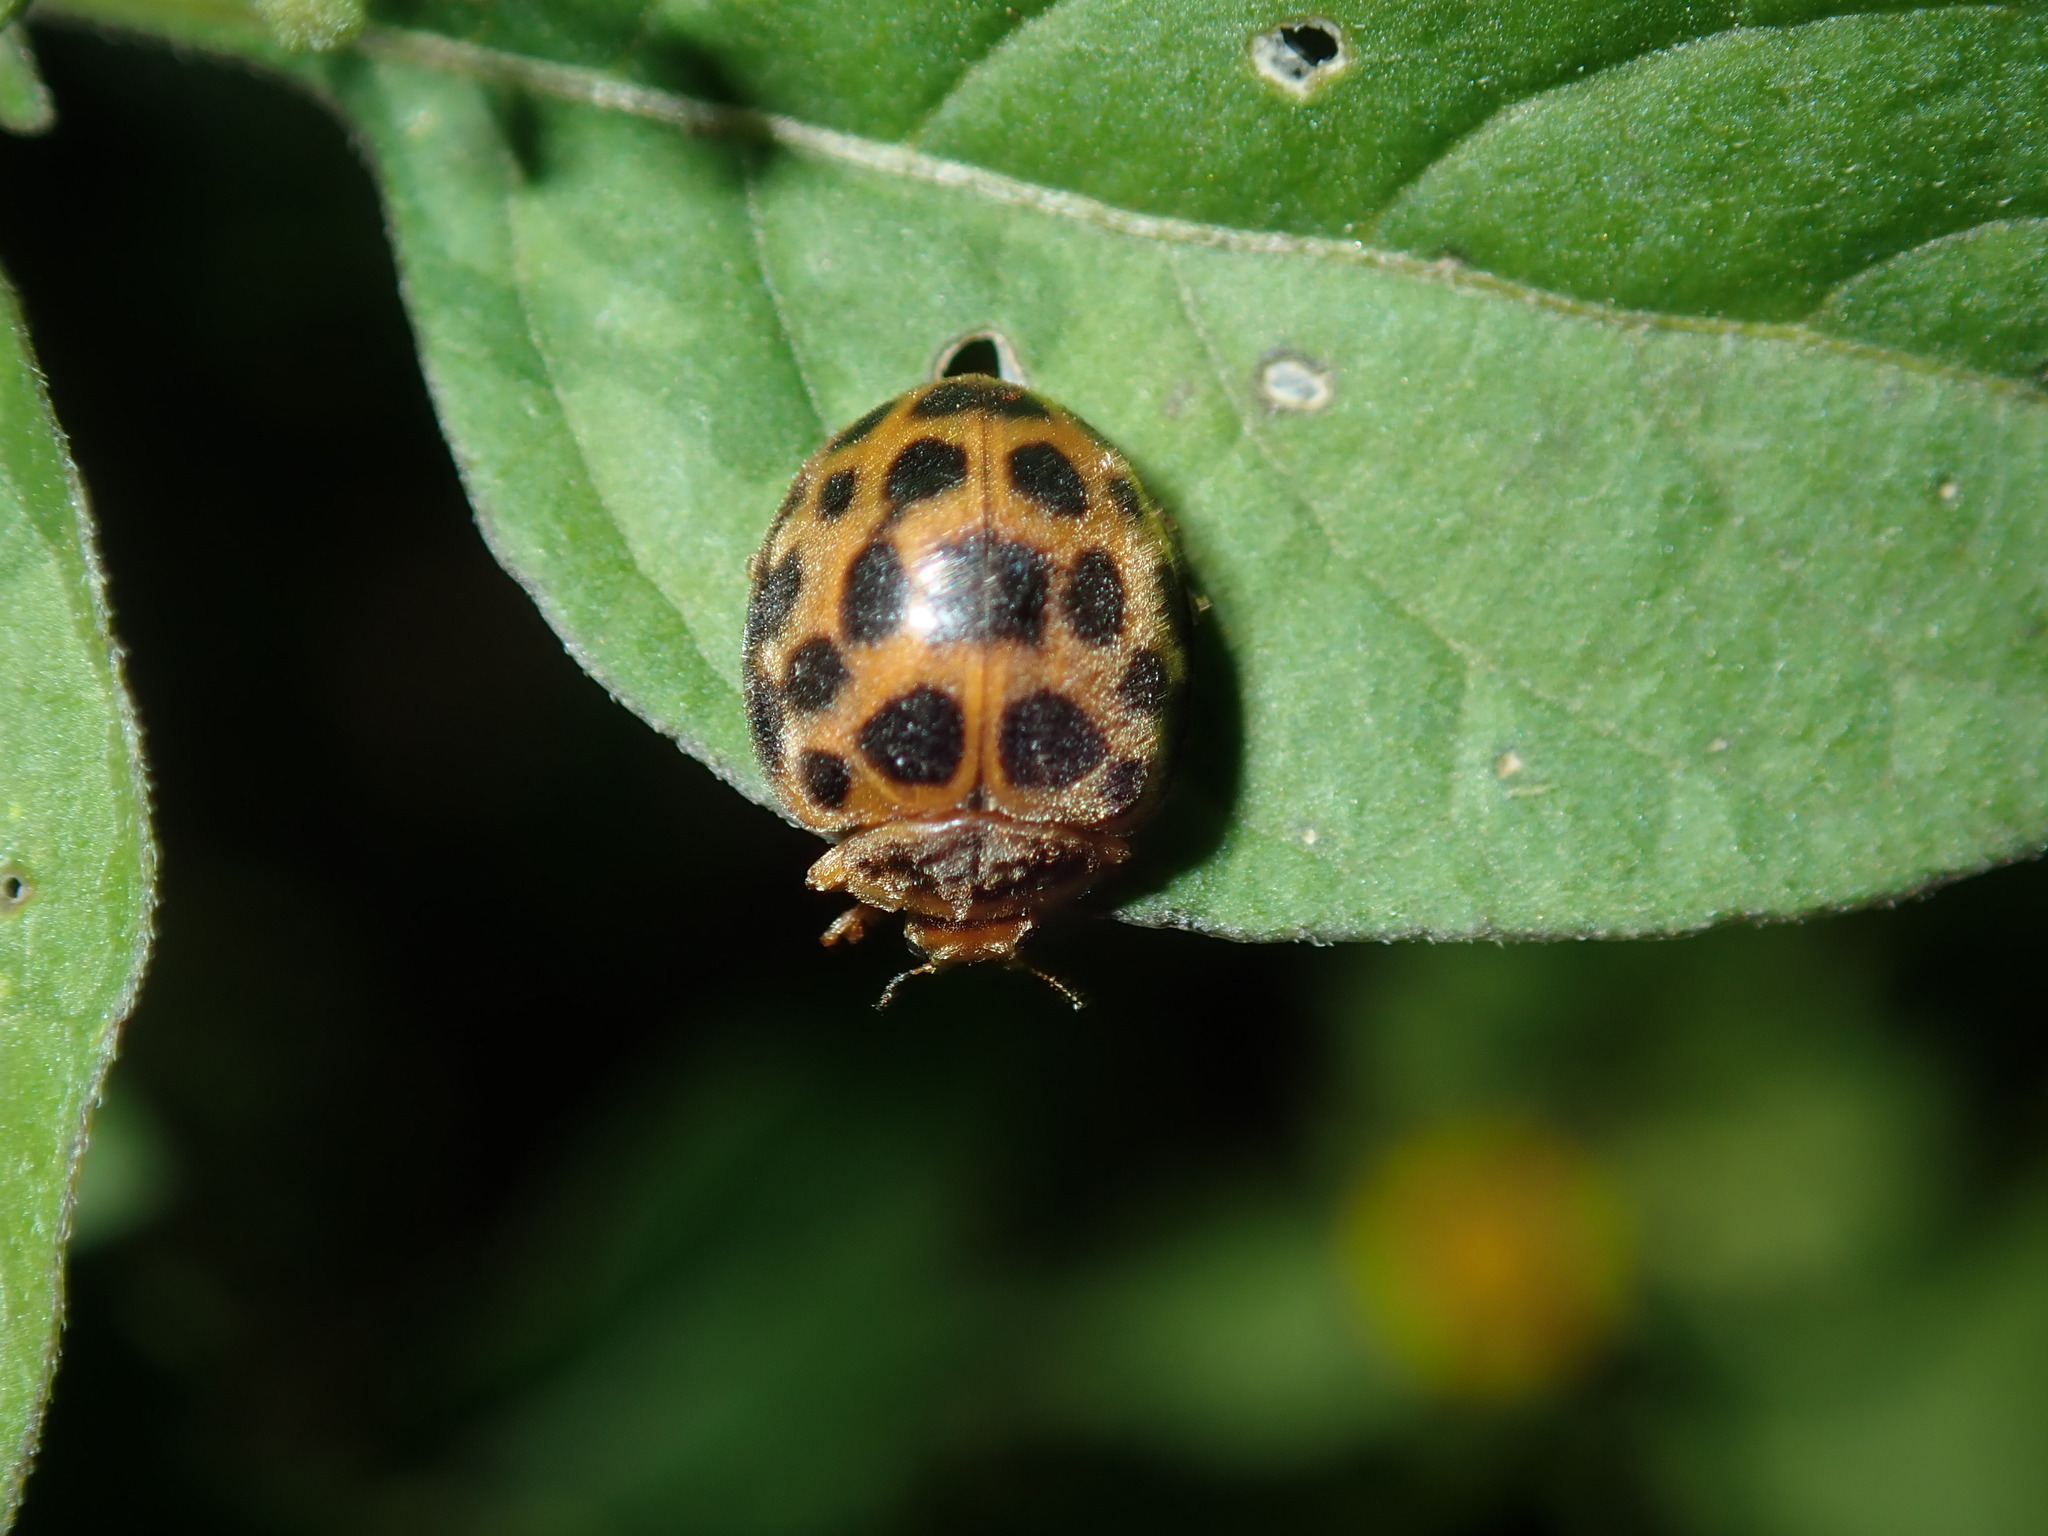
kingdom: Animalia
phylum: Arthropoda
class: Insecta
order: Coleoptera
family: Coccinellidae
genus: Henosepilachna
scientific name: Henosepilachna vigintioctopunctata
